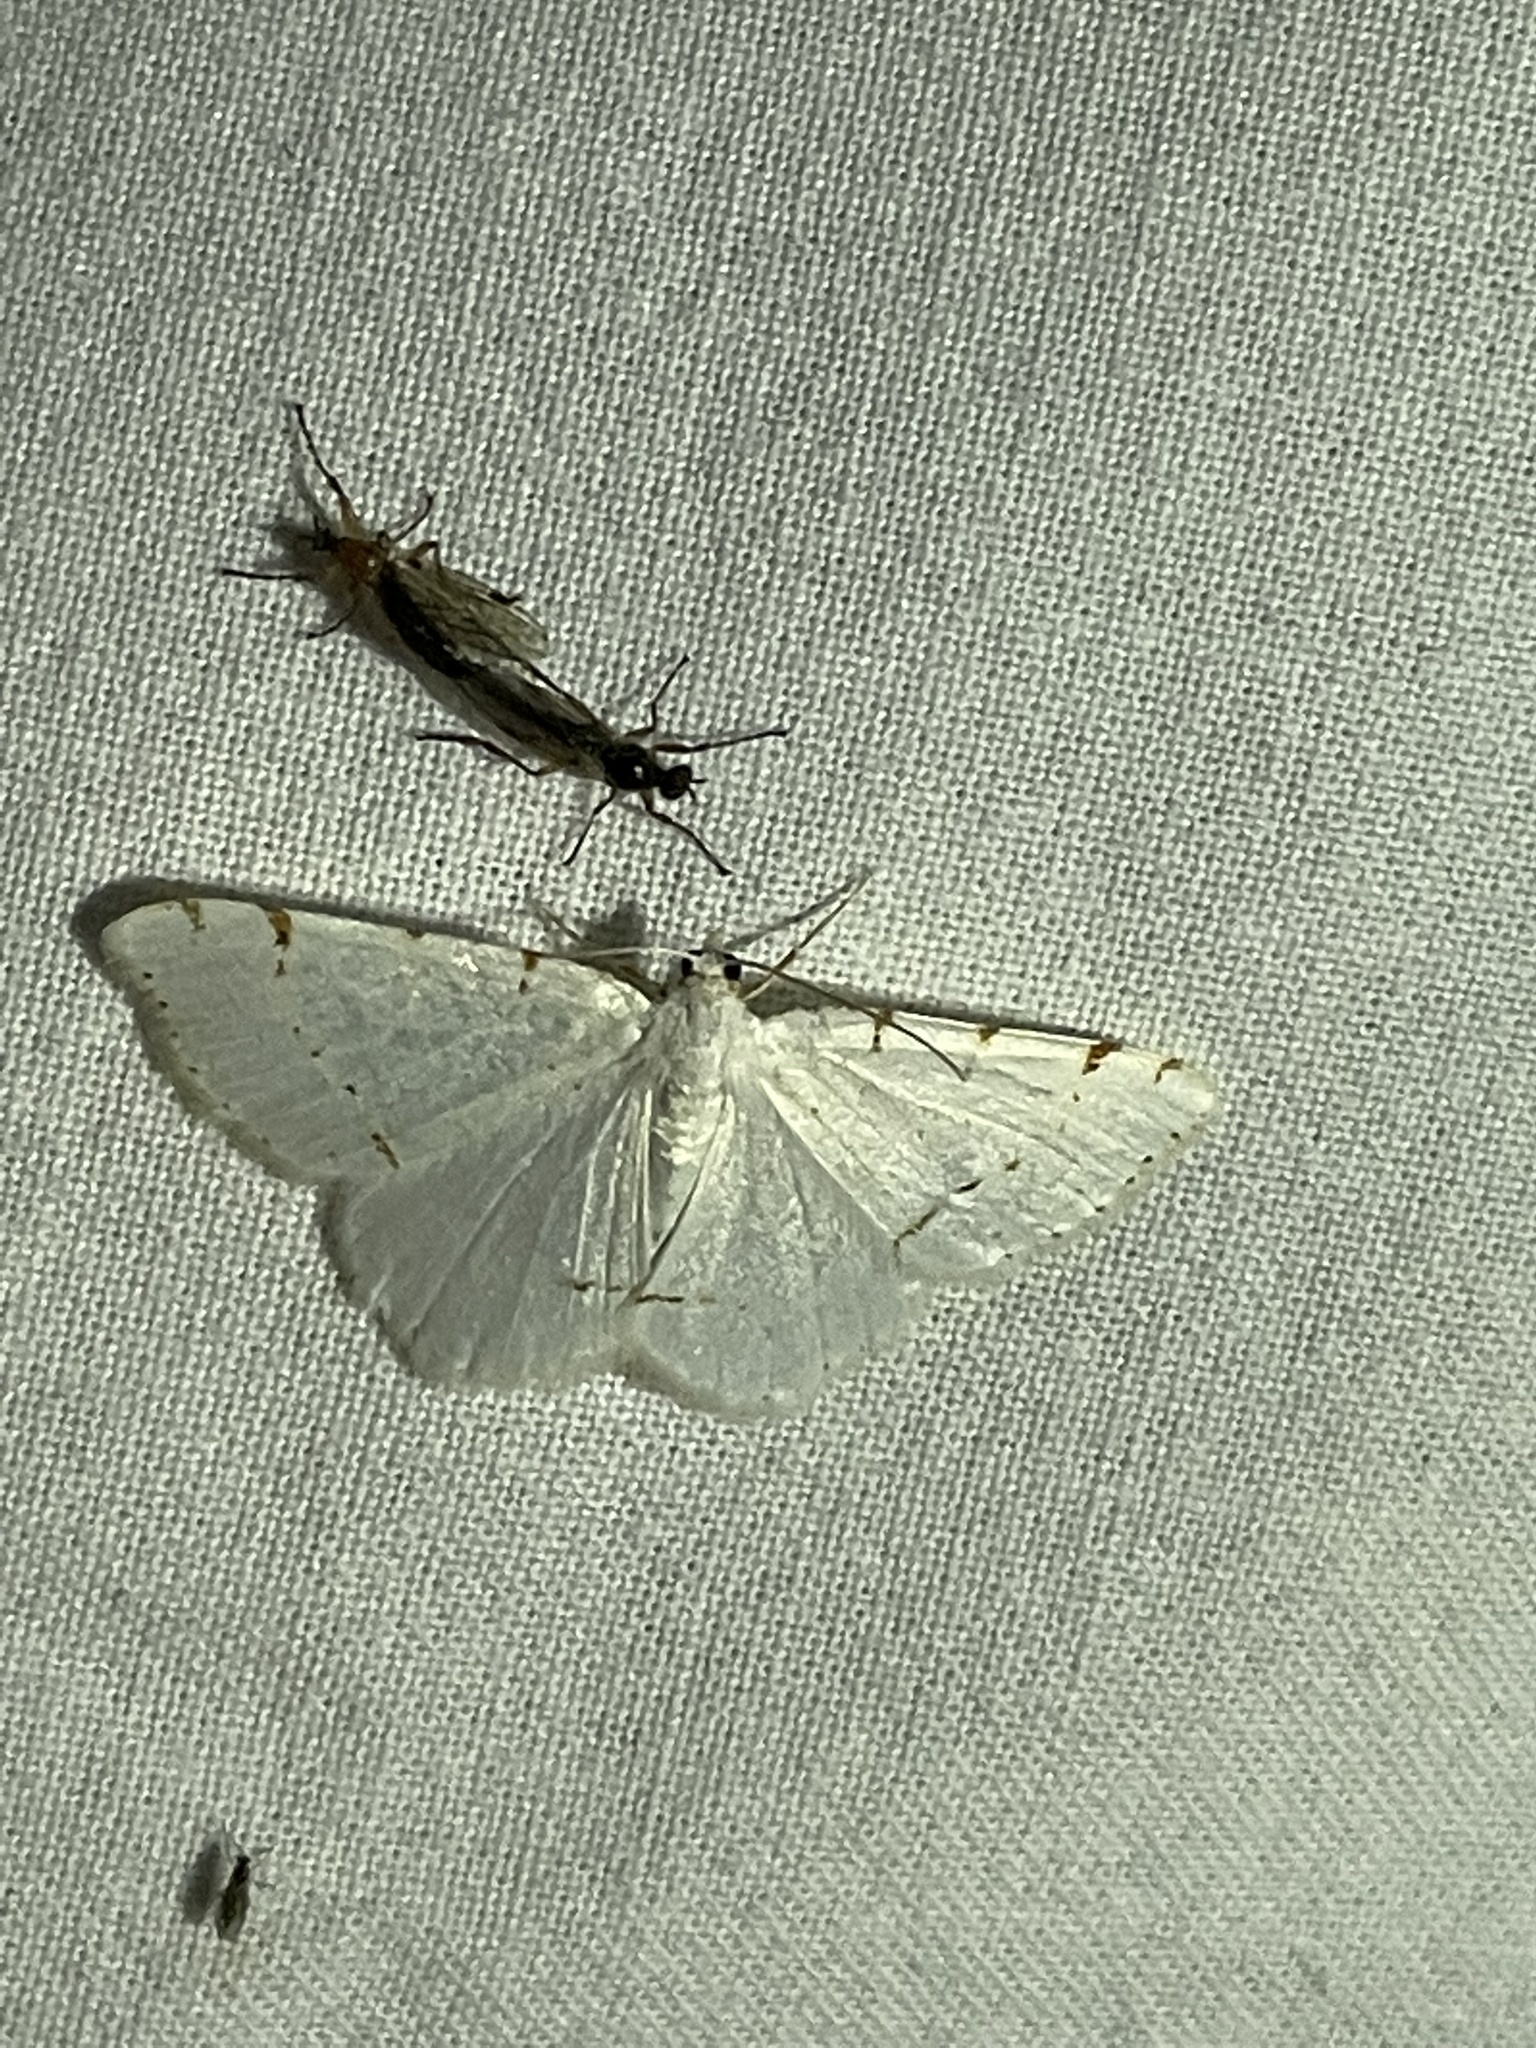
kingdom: Animalia
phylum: Arthropoda
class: Insecta
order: Lepidoptera
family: Geometridae
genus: Macaria
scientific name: Macaria pustularia
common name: Lesser maple spanworm moth
